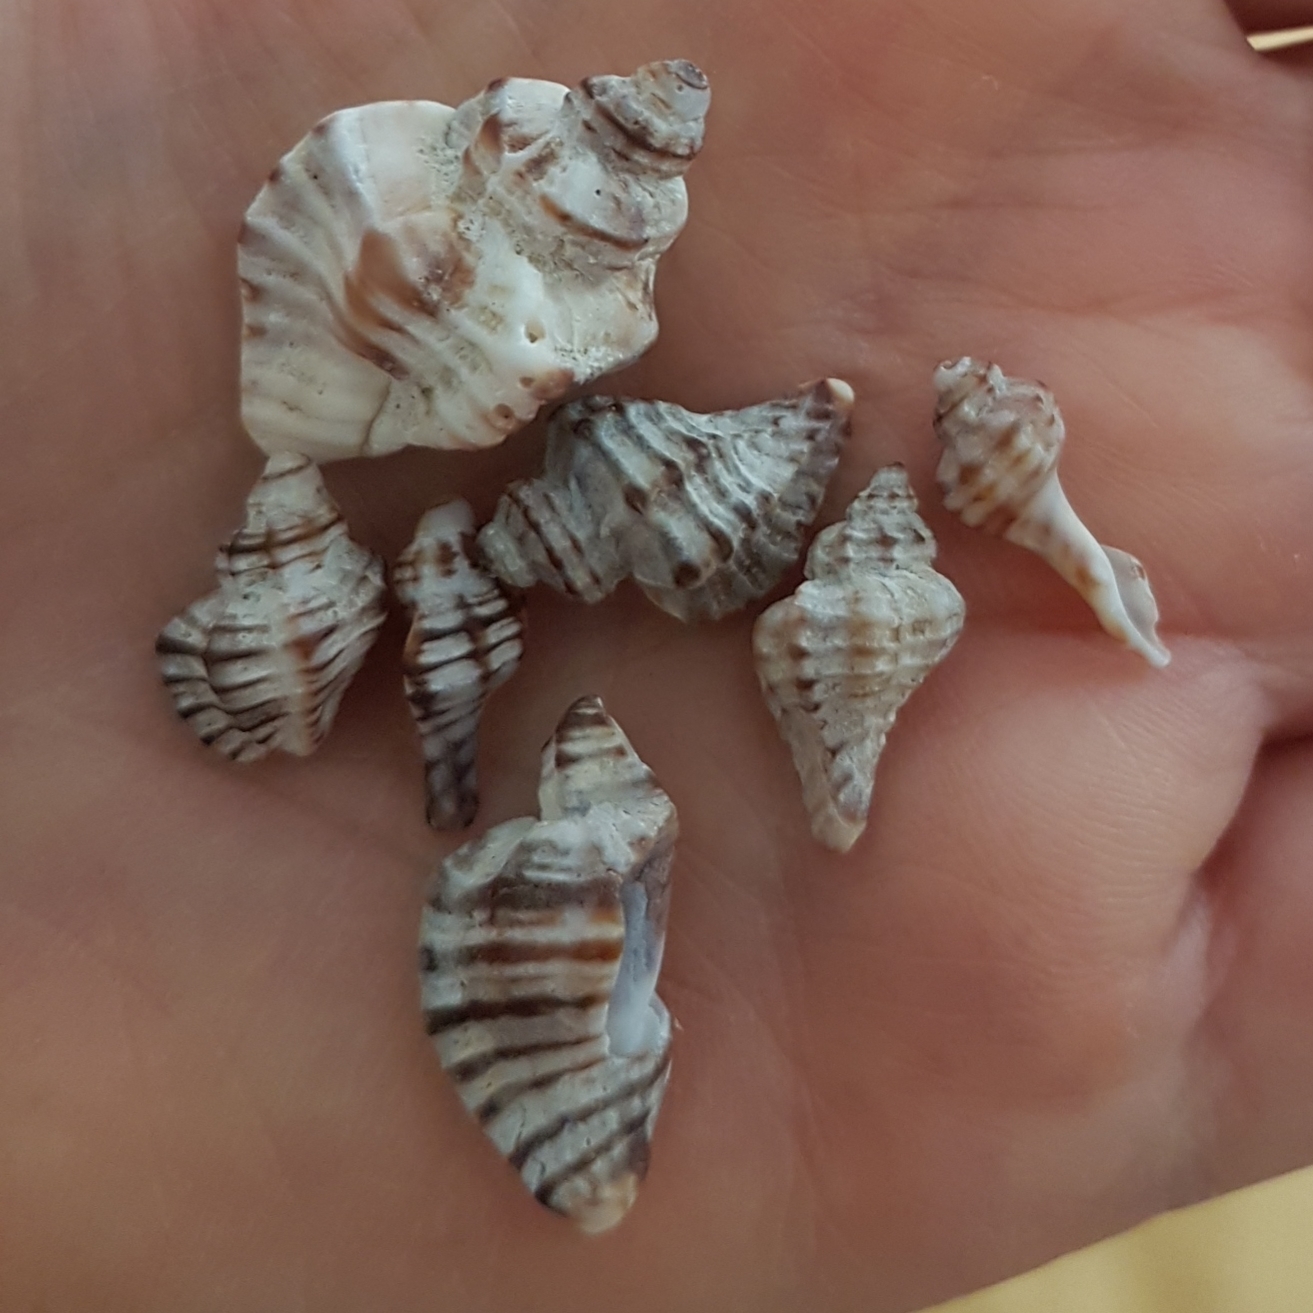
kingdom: Animalia
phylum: Mollusca
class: Gastropoda
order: Neogastropoda
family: Muricidae
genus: Ocenebra
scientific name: Ocenebra erinaceus
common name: European sting winkle
